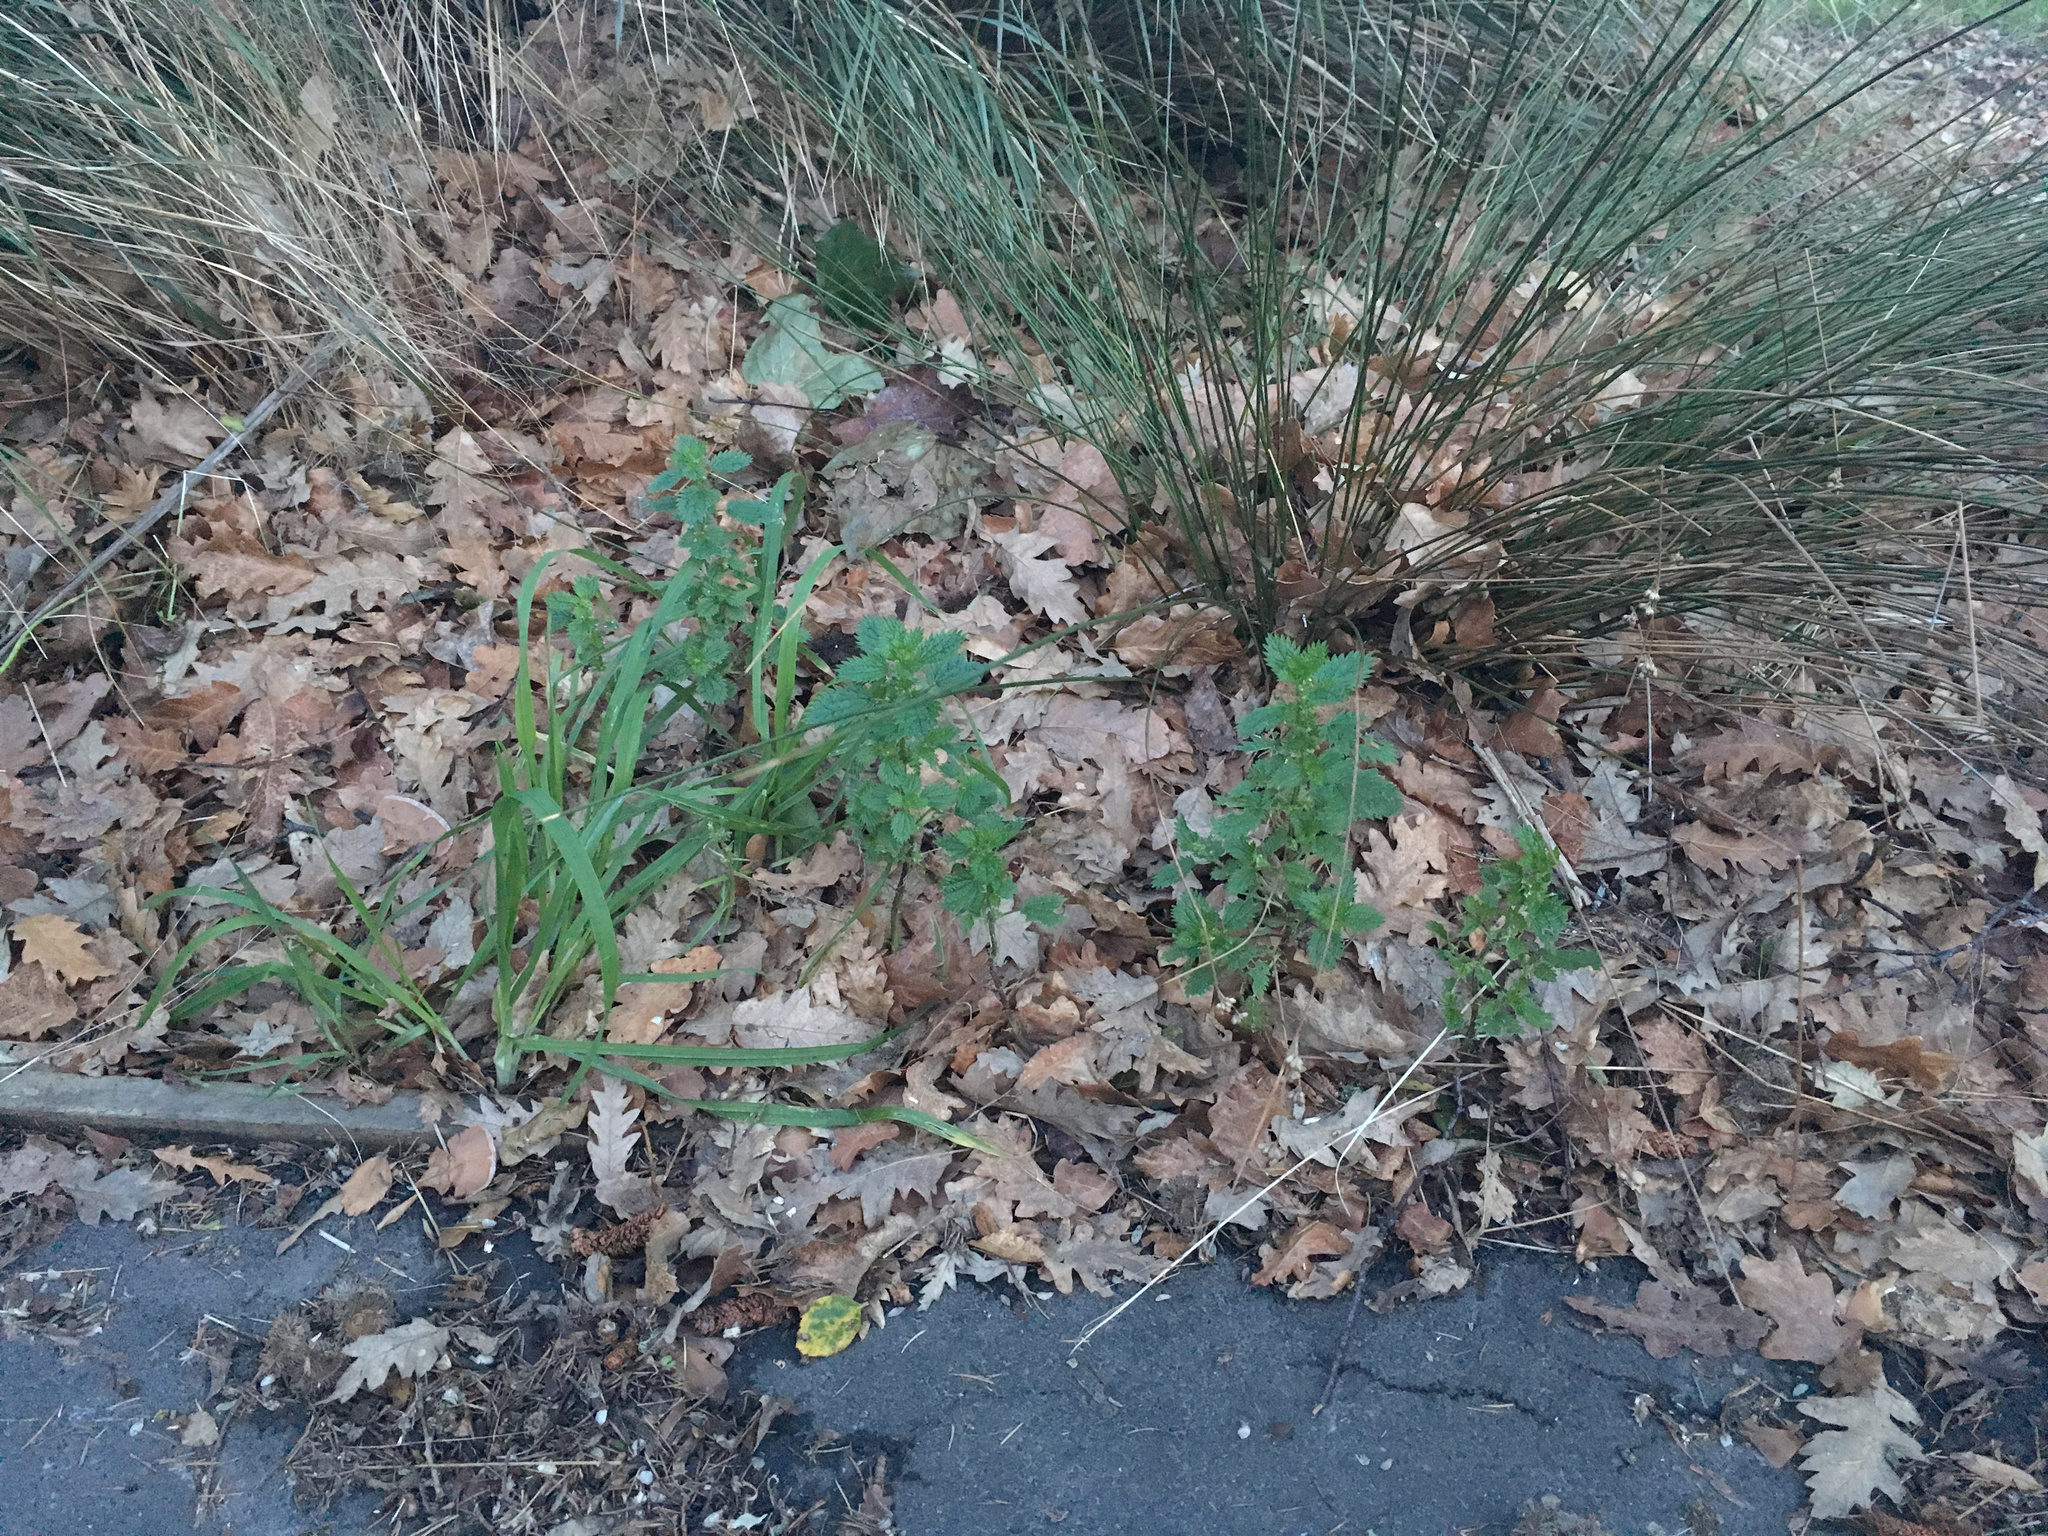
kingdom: Plantae
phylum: Tracheophyta
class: Magnoliopsida
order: Rosales
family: Urticaceae
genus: Urtica
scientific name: Urtica urens
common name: Dwarf nettle
